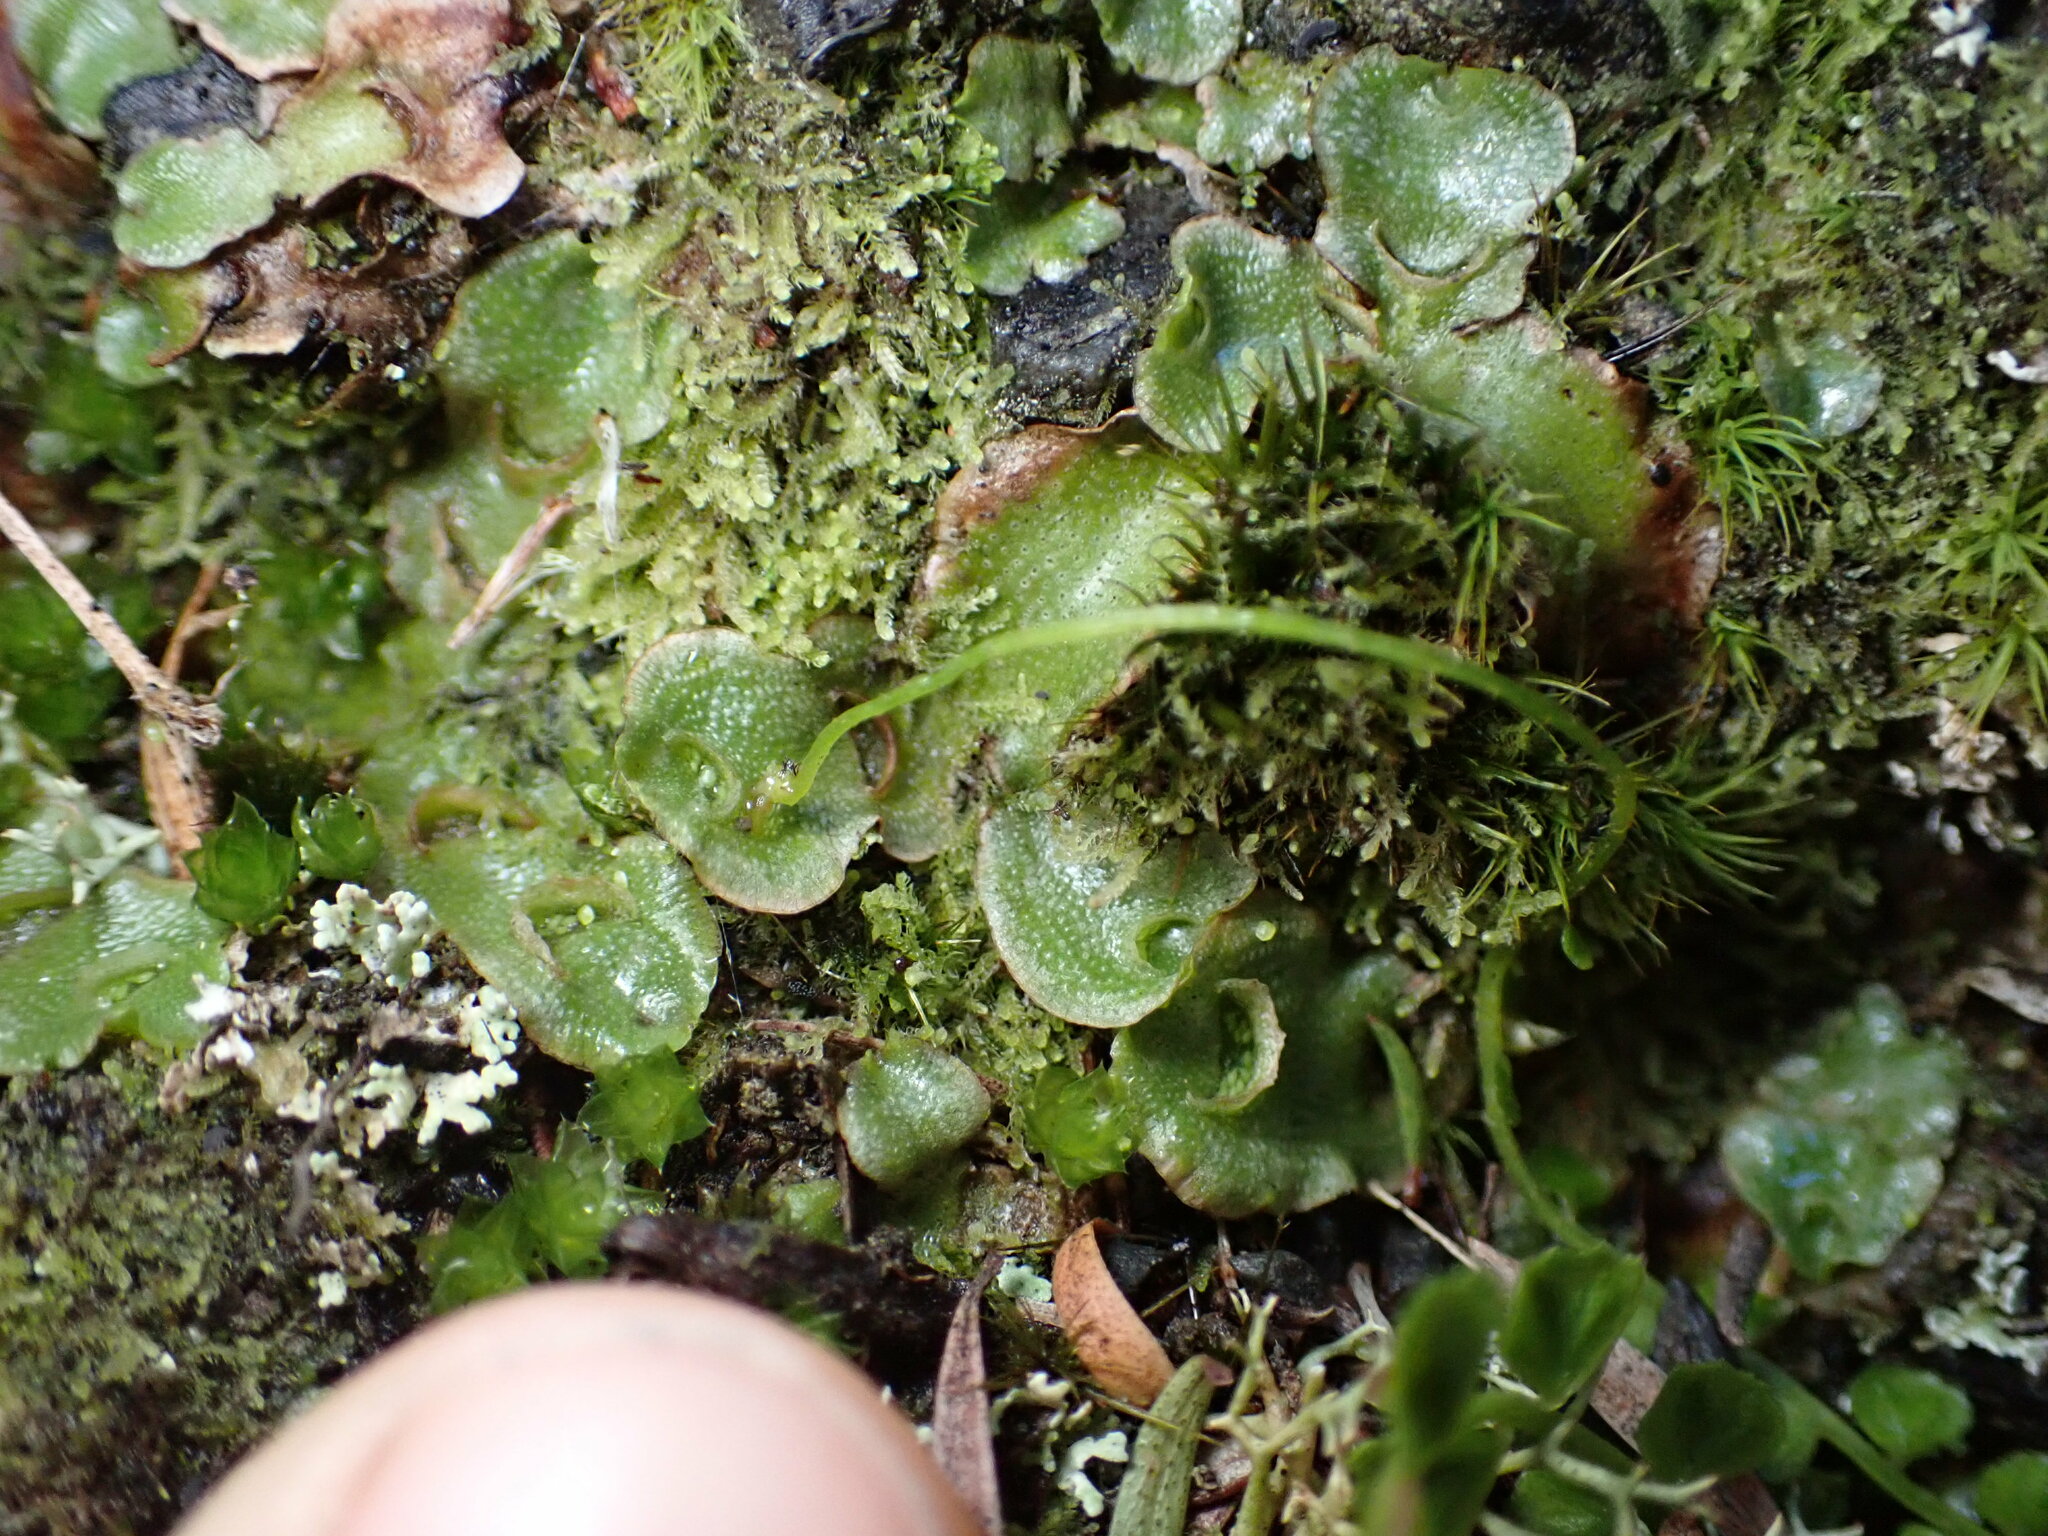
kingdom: Plantae
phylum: Marchantiophyta
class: Marchantiopsida
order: Lunulariales
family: Lunulariaceae
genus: Lunularia
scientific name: Lunularia cruciata
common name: Crescent-cup liverwort
